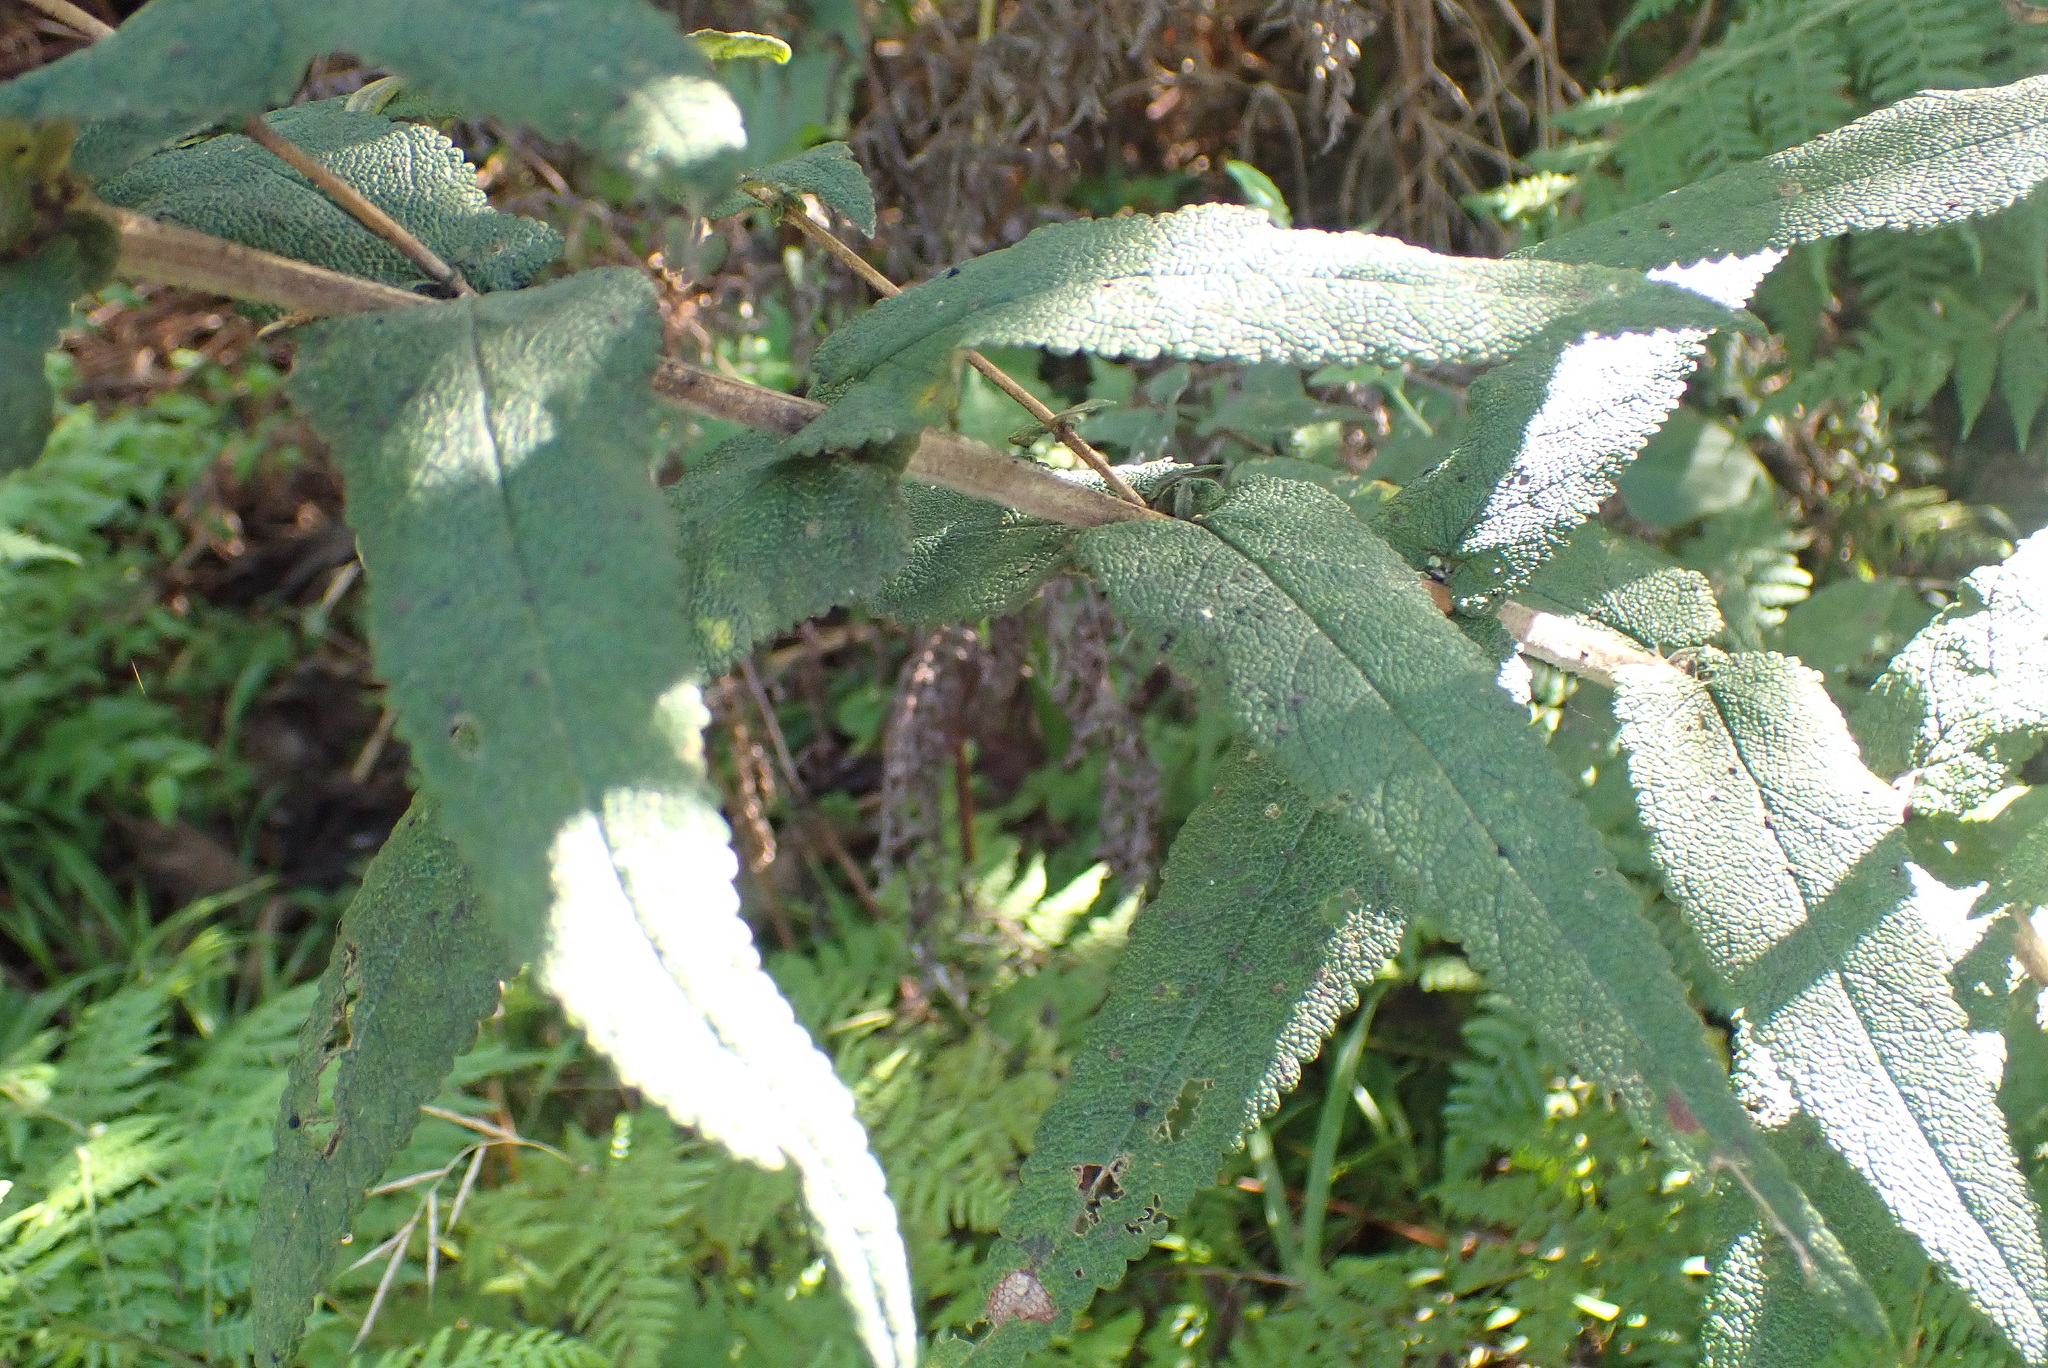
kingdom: Plantae
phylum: Tracheophyta
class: Magnoliopsida
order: Lamiales
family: Scrophulariaceae
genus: Buddleja
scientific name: Buddleja salviifolia
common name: Sagewood
